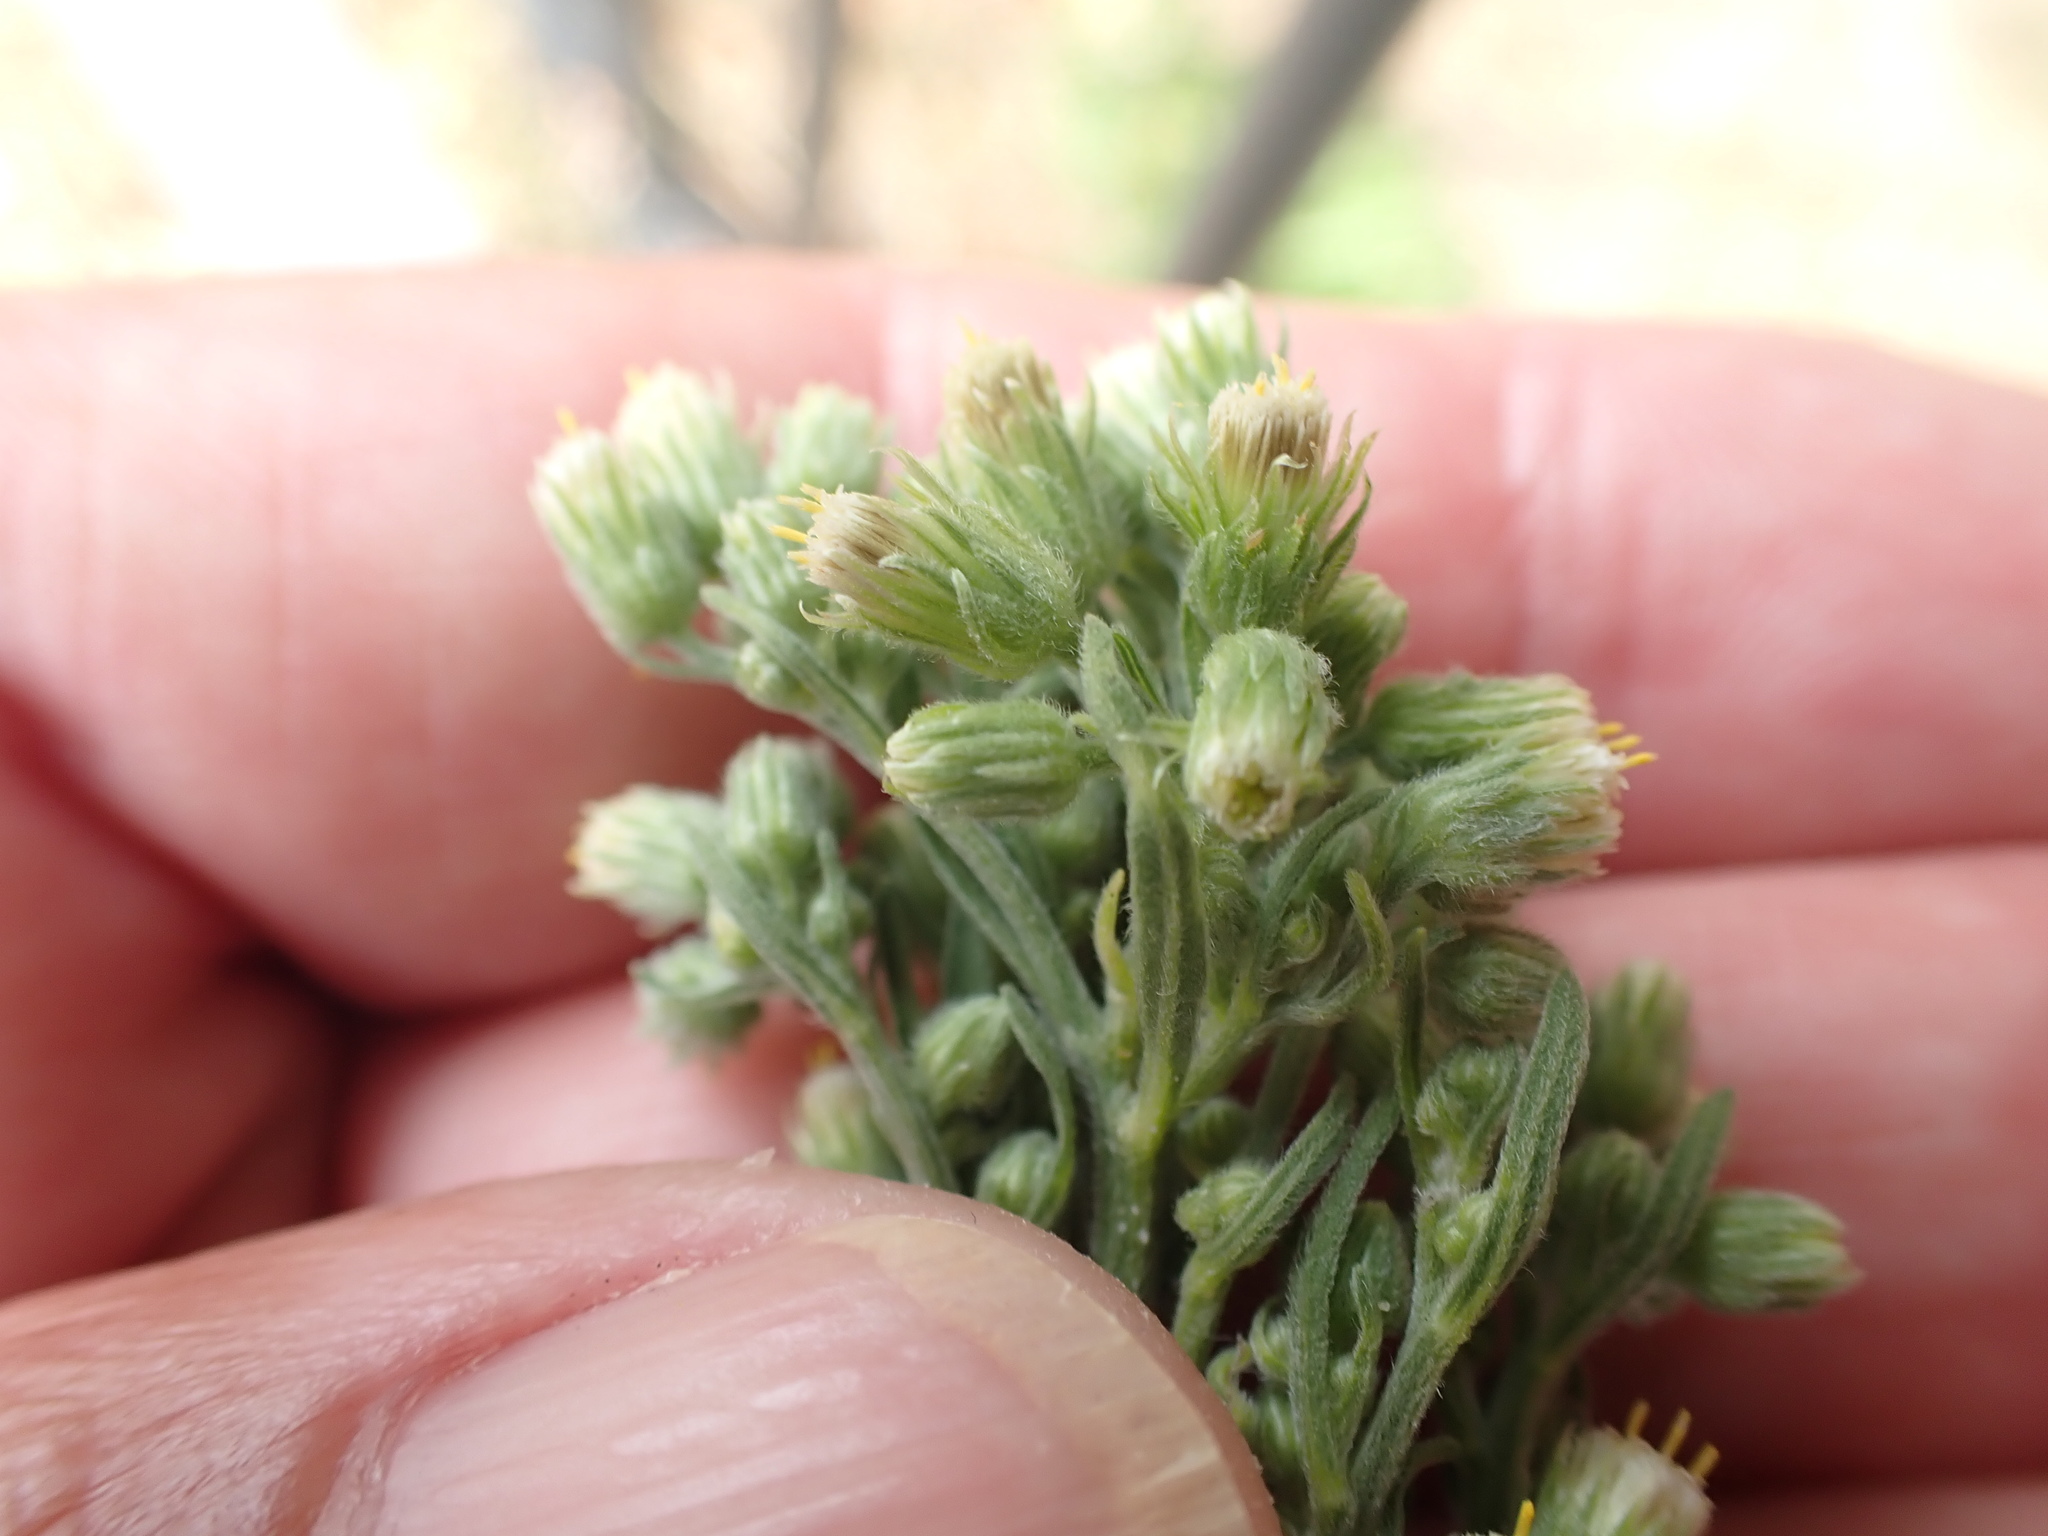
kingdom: Plantae
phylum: Tracheophyta
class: Magnoliopsida
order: Asterales
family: Asteraceae
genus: Erigeron
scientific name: Erigeron sumatrensis
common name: Daisy
